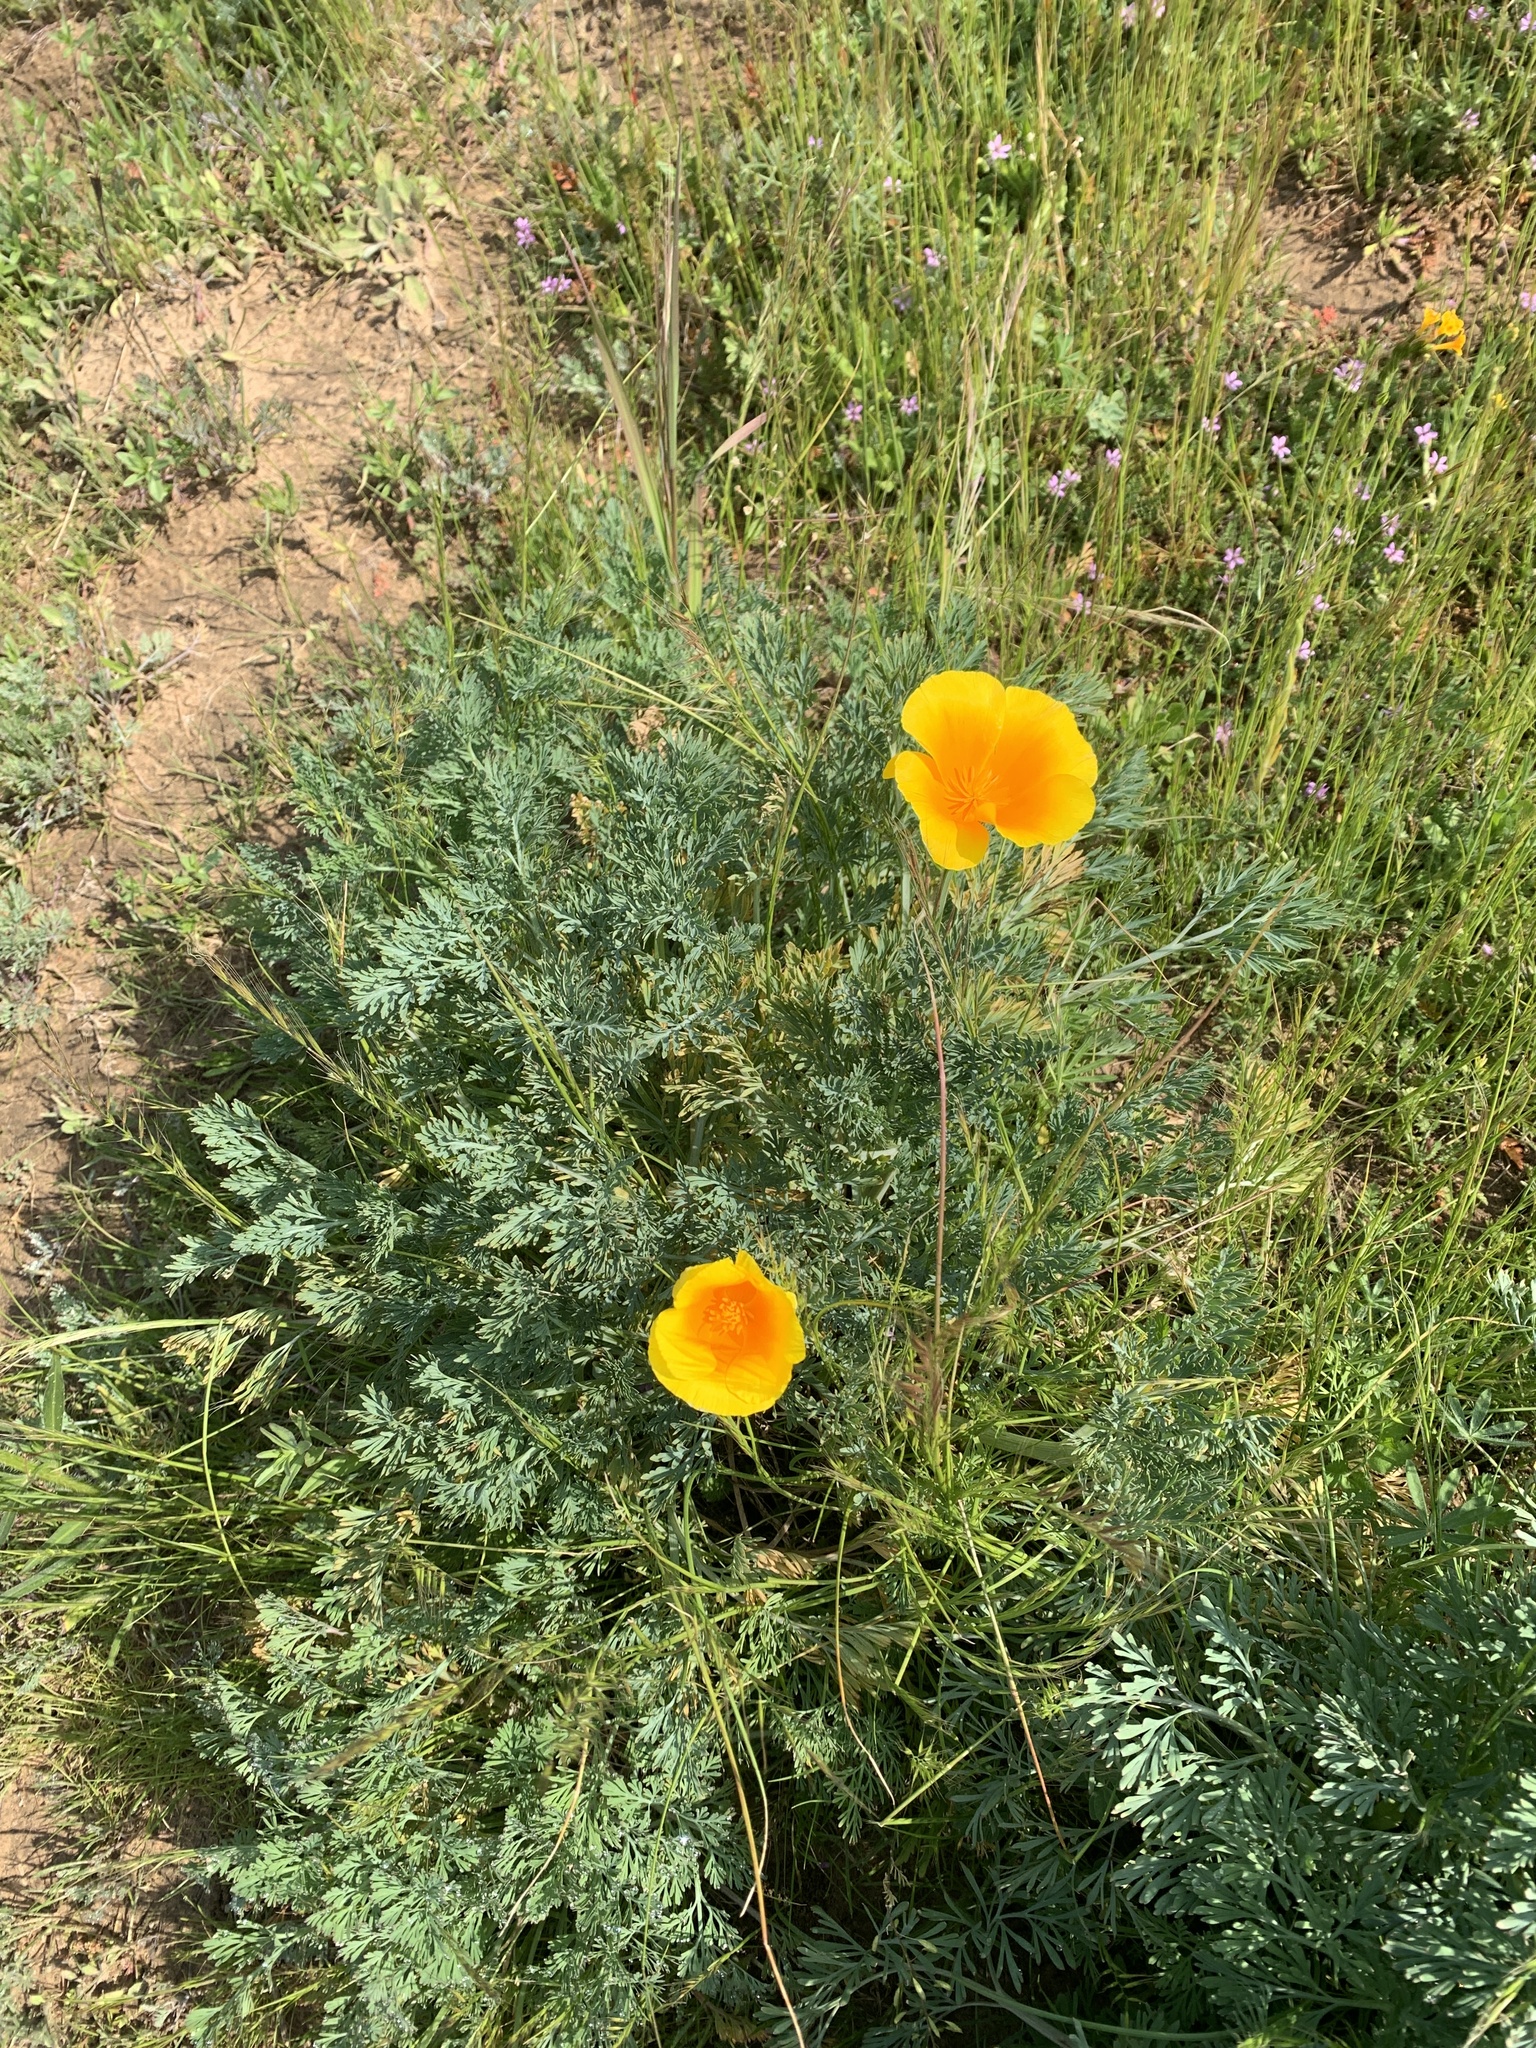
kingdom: Plantae
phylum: Tracheophyta
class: Magnoliopsida
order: Ranunculales
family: Papaveraceae
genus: Eschscholzia
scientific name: Eschscholzia californica
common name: California poppy
